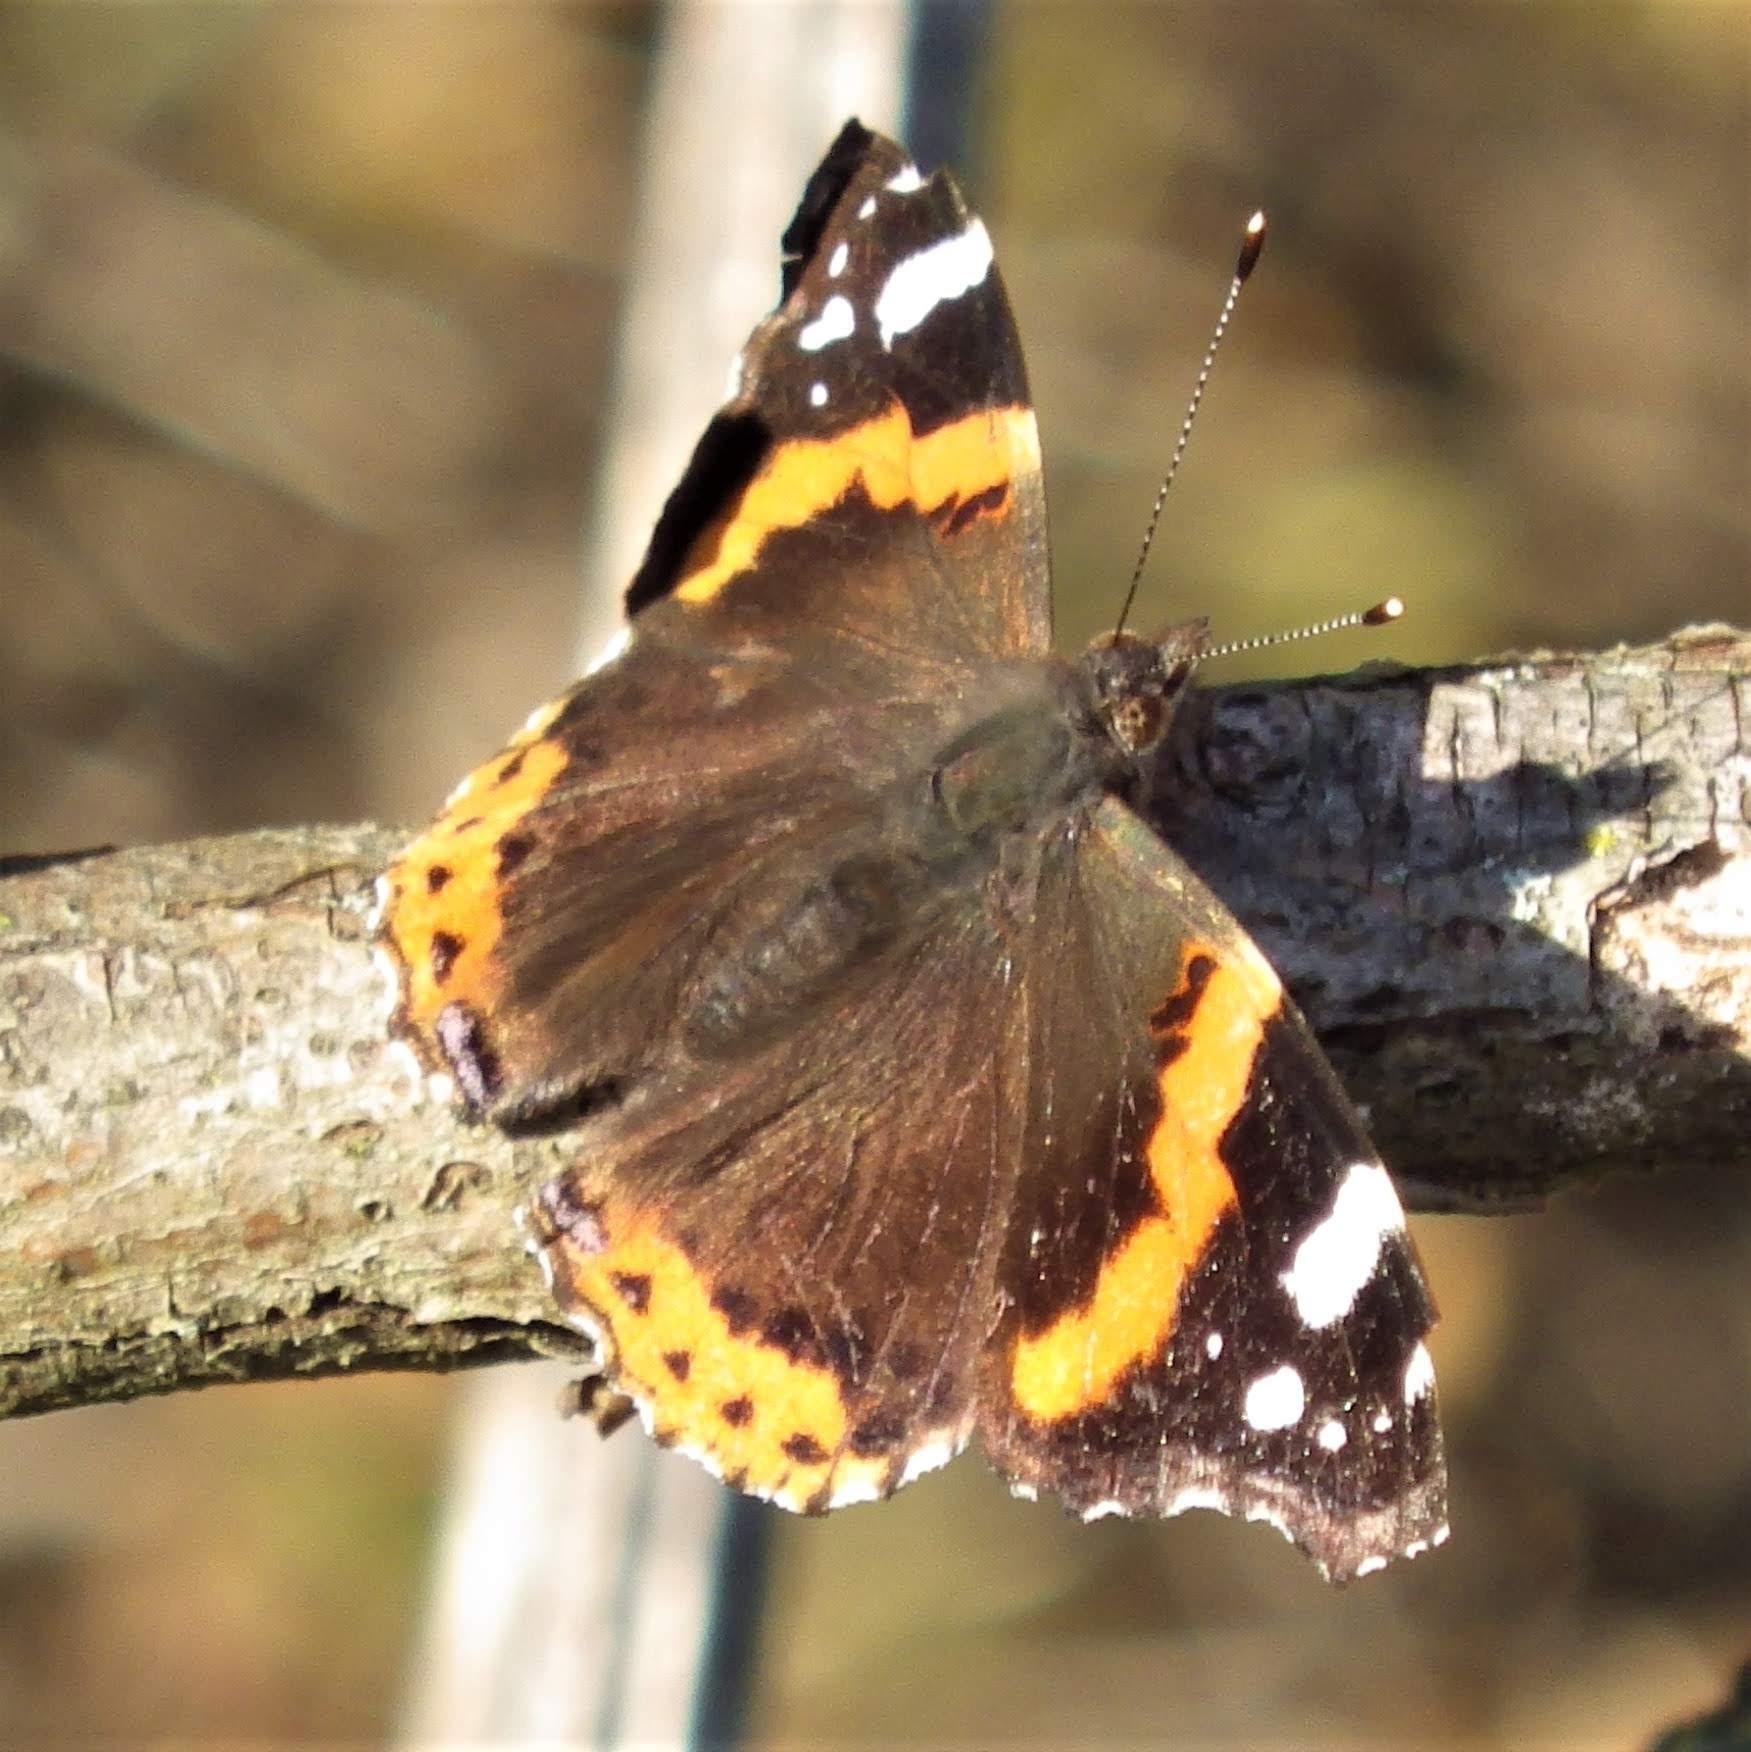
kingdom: Animalia
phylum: Arthropoda
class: Insecta
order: Lepidoptera
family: Nymphalidae
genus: Vanessa
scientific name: Vanessa atalanta
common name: Red admiral
